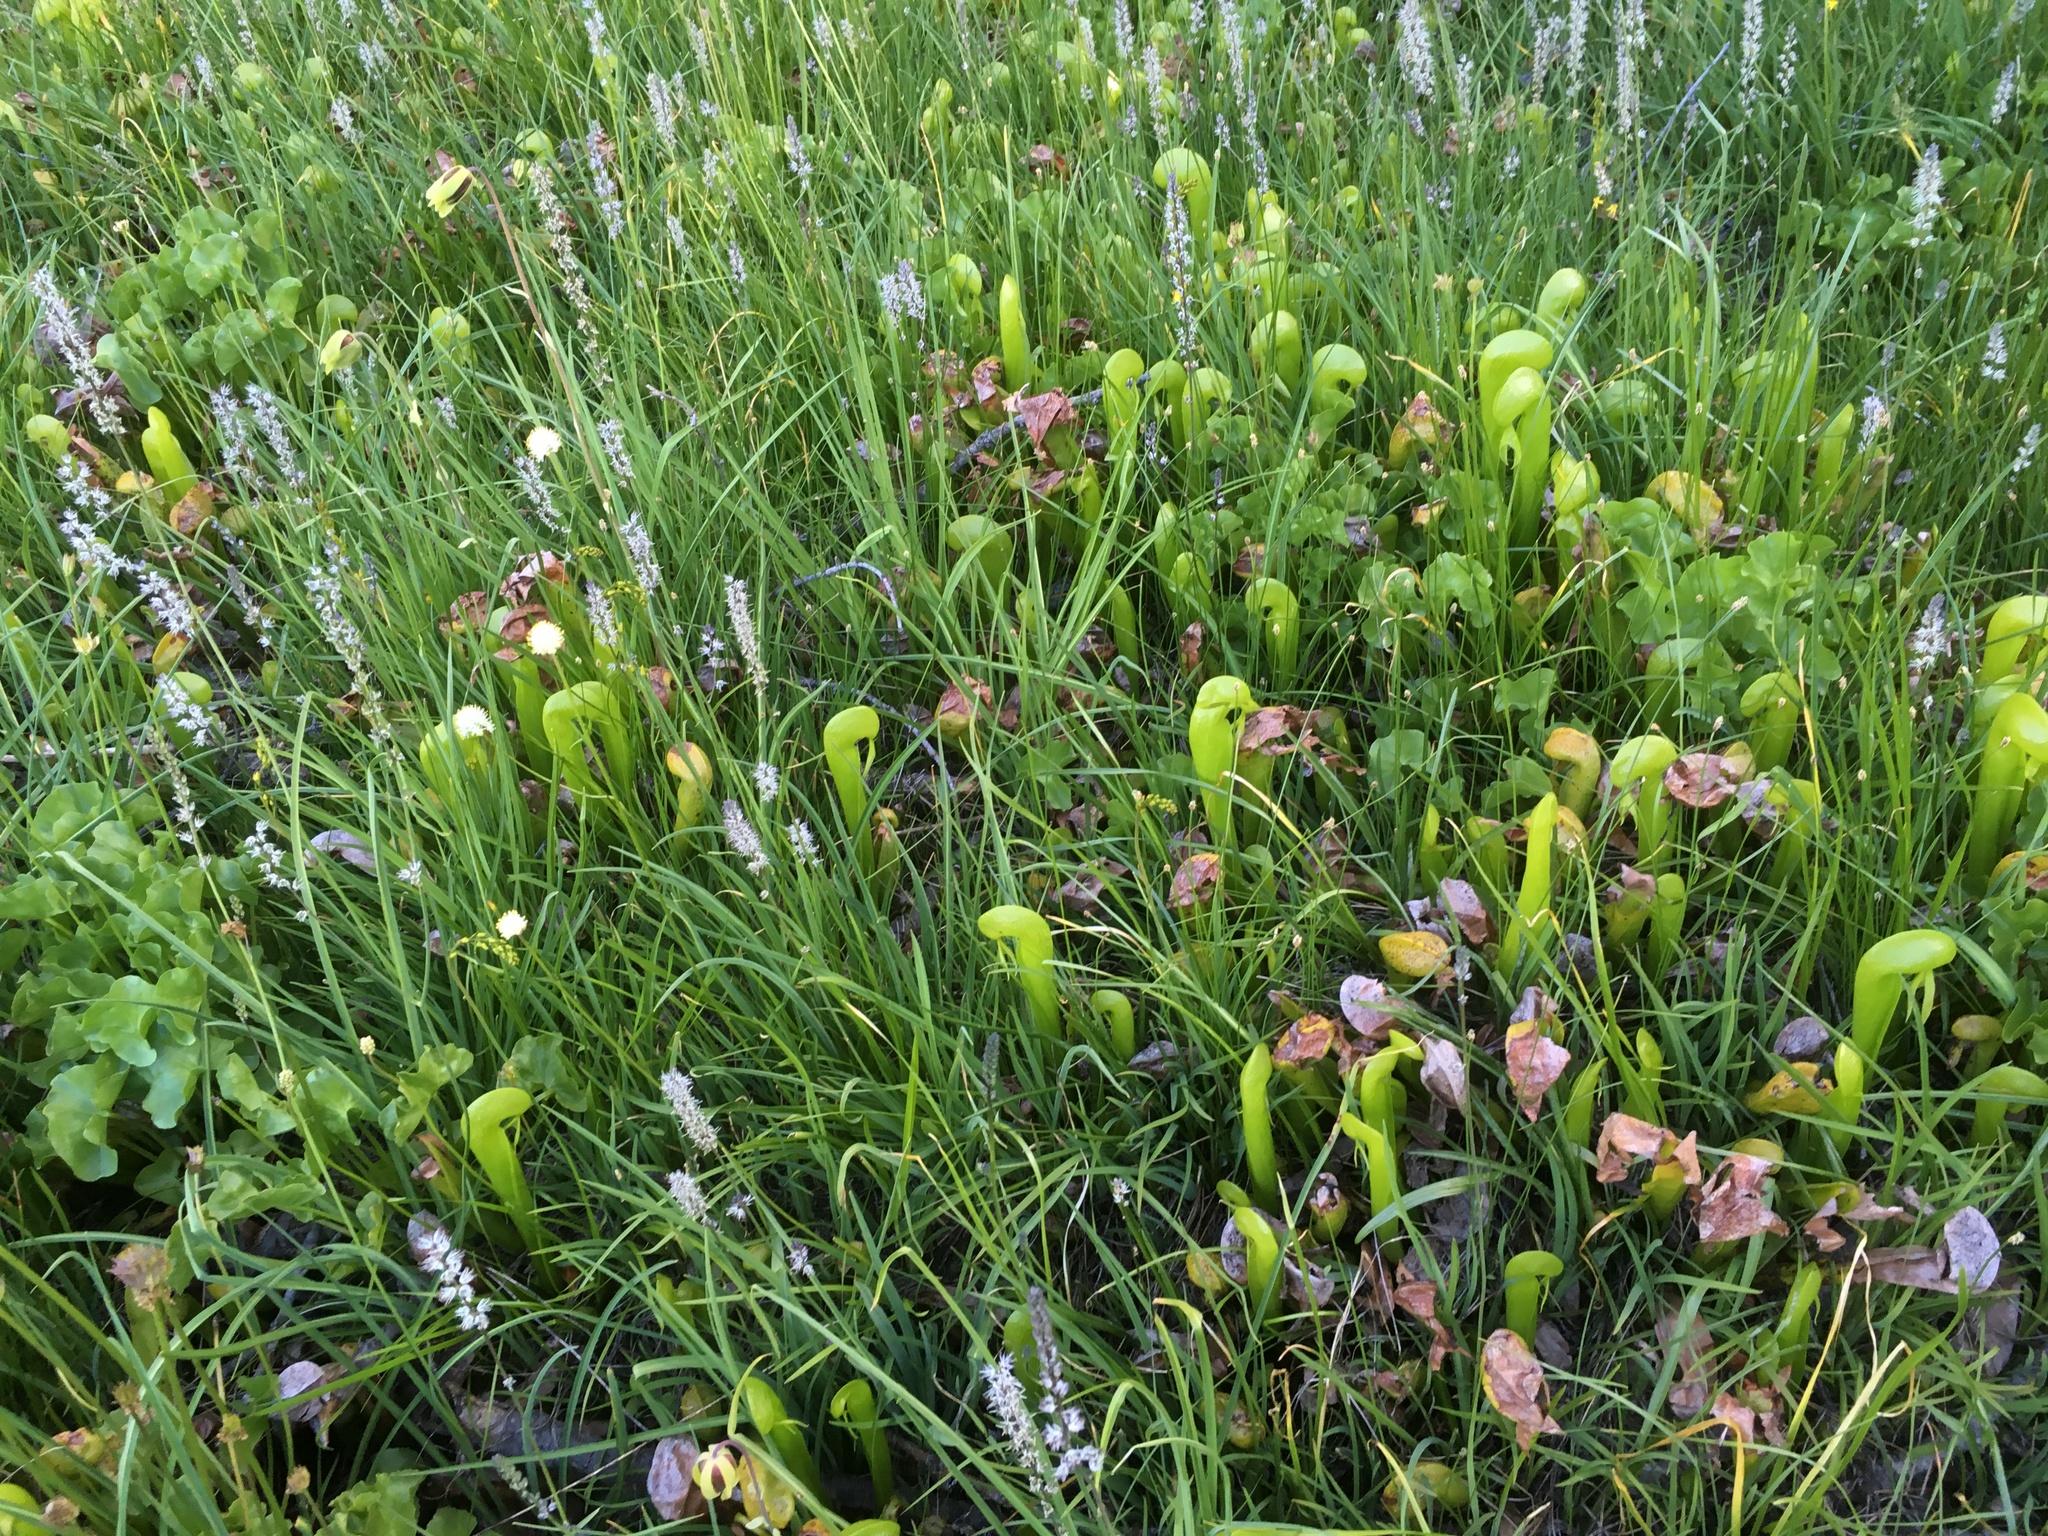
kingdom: Plantae
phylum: Tracheophyta
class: Magnoliopsida
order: Ericales
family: Sarraceniaceae
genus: Darlingtonia
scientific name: Darlingtonia californica
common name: California pitcher plant
